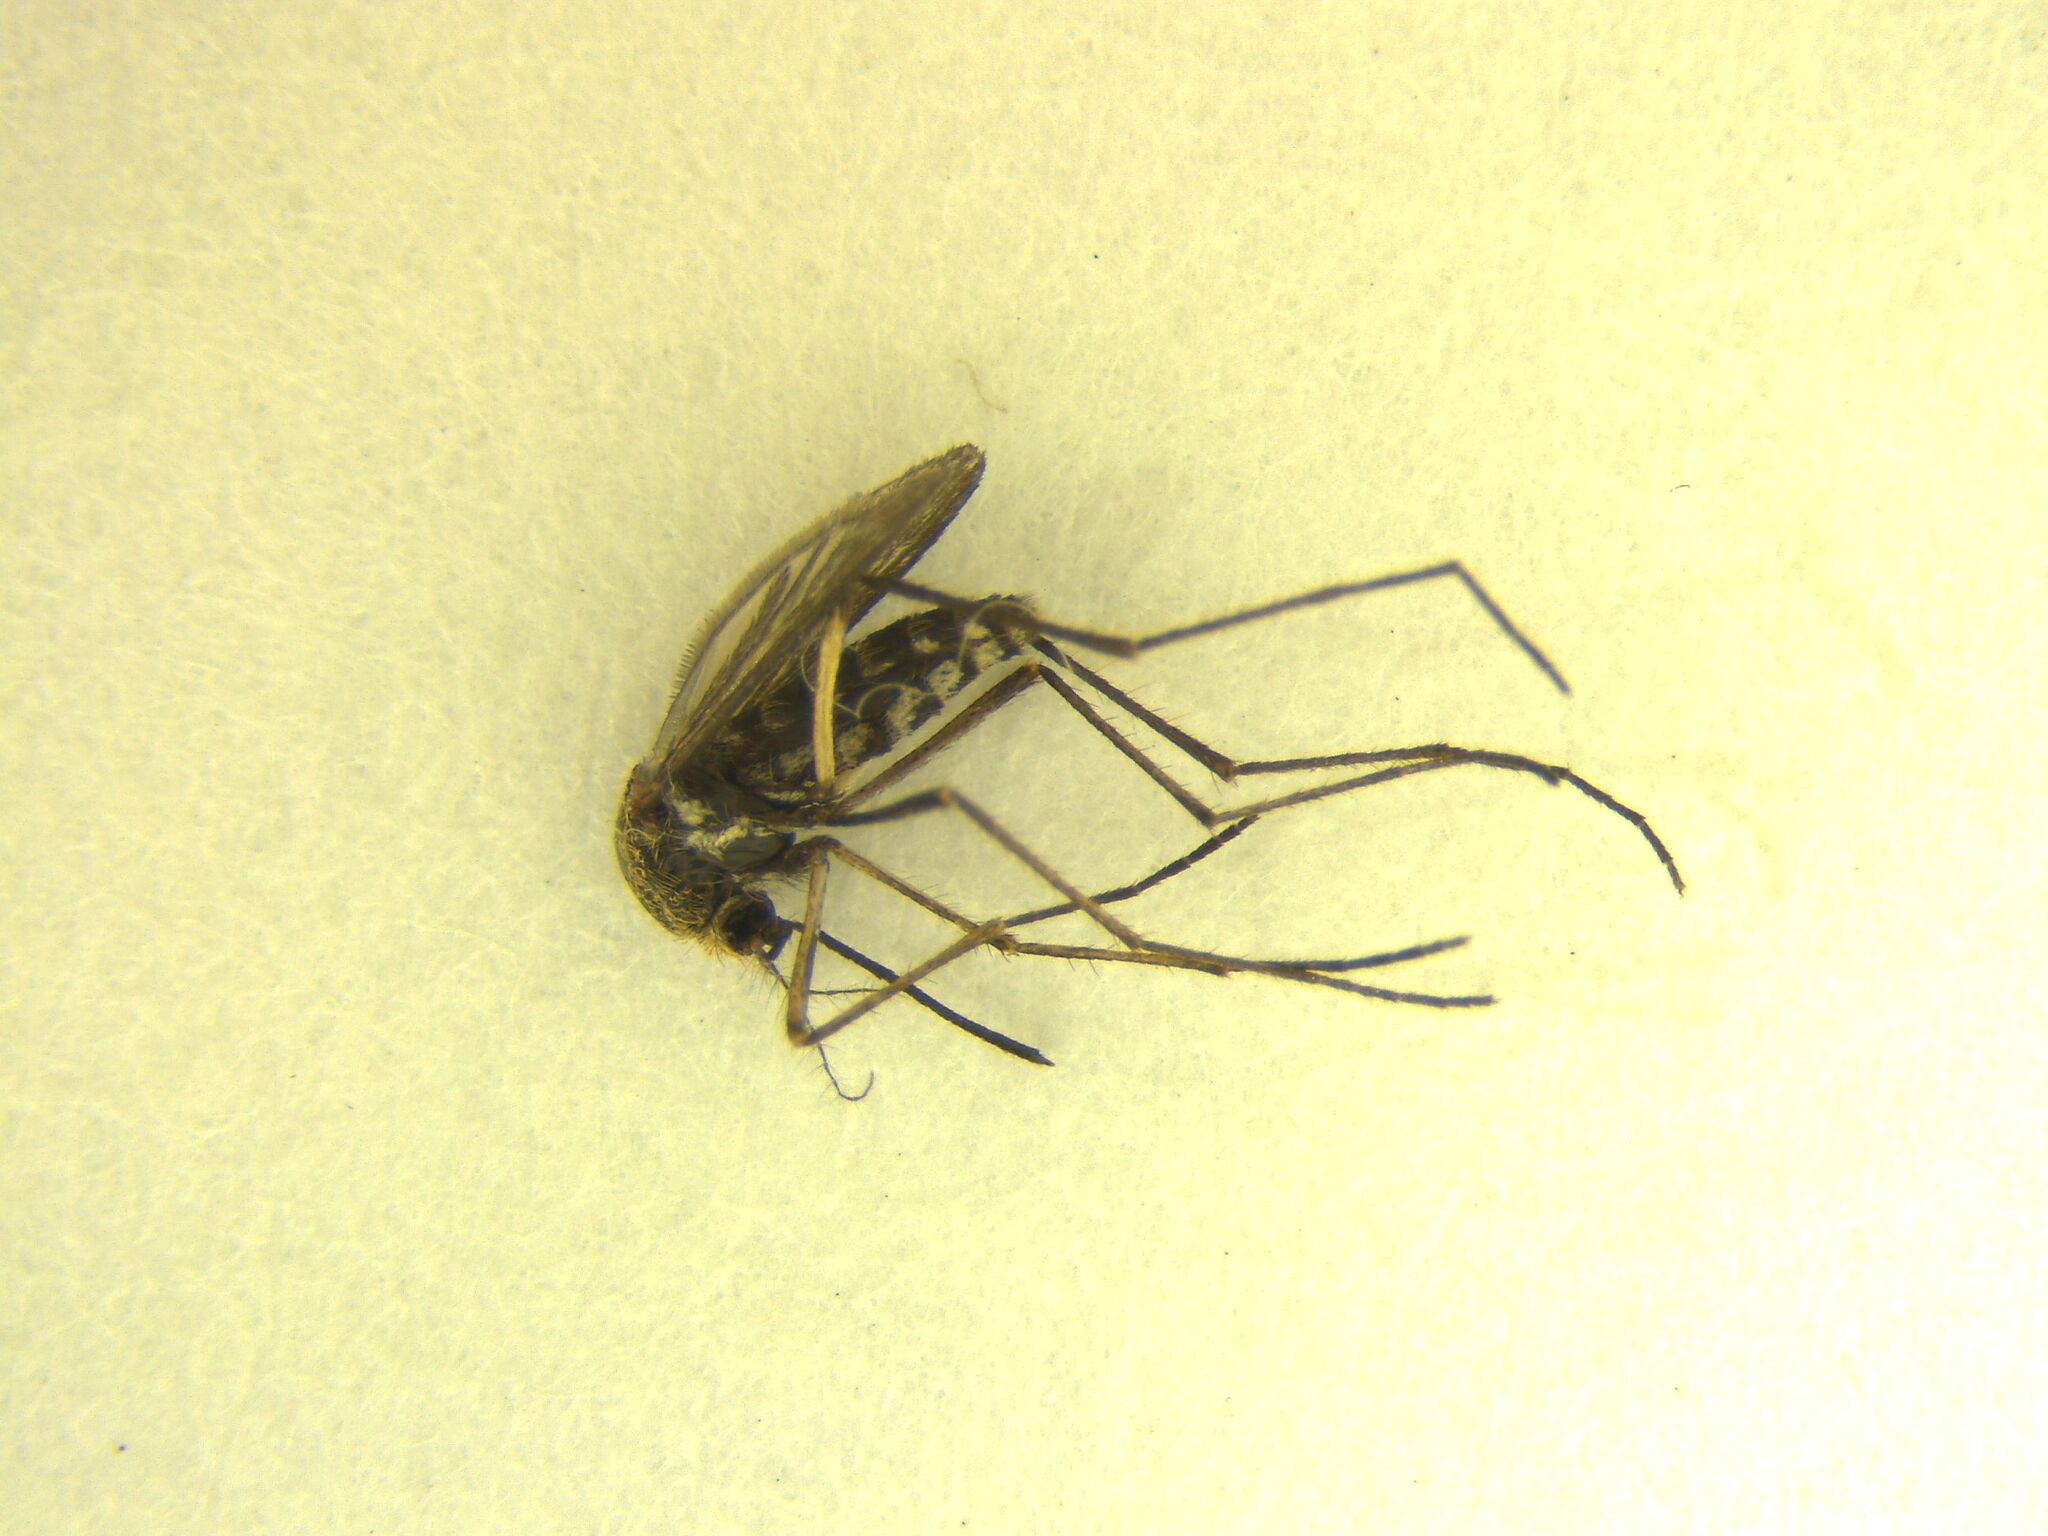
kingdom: Animalia
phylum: Arthropoda
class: Insecta
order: Diptera
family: Culicidae
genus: Coquillettidia
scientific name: Coquillettidia iracunda
